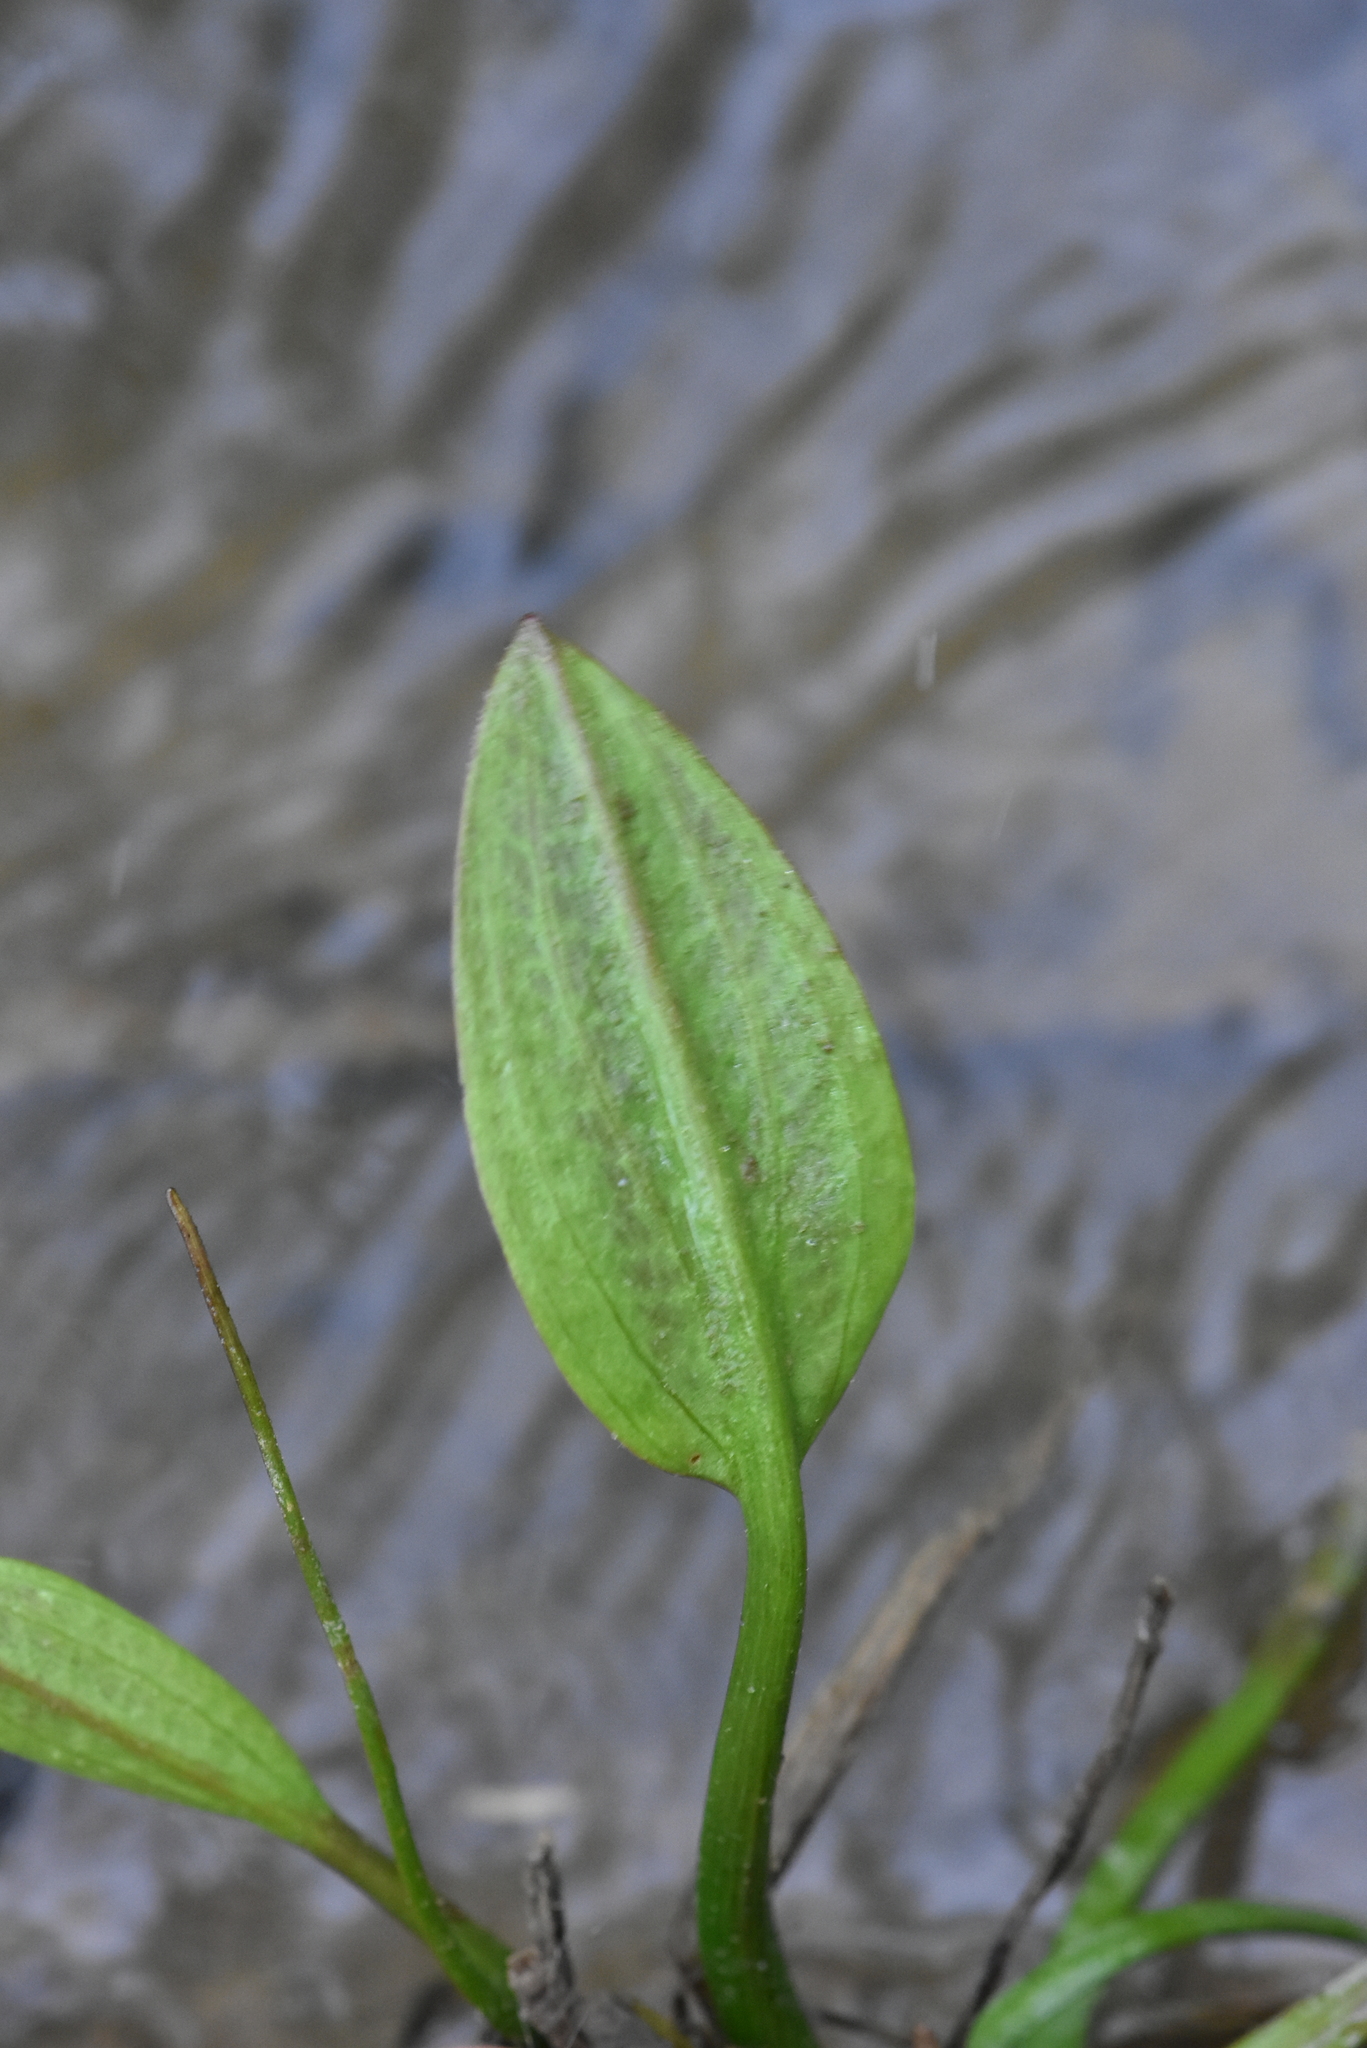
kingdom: Plantae
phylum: Tracheophyta
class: Liliopsida
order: Alismatales
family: Alismataceae
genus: Alisma
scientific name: Alisma plantago-aquatica
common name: Water-plantain
